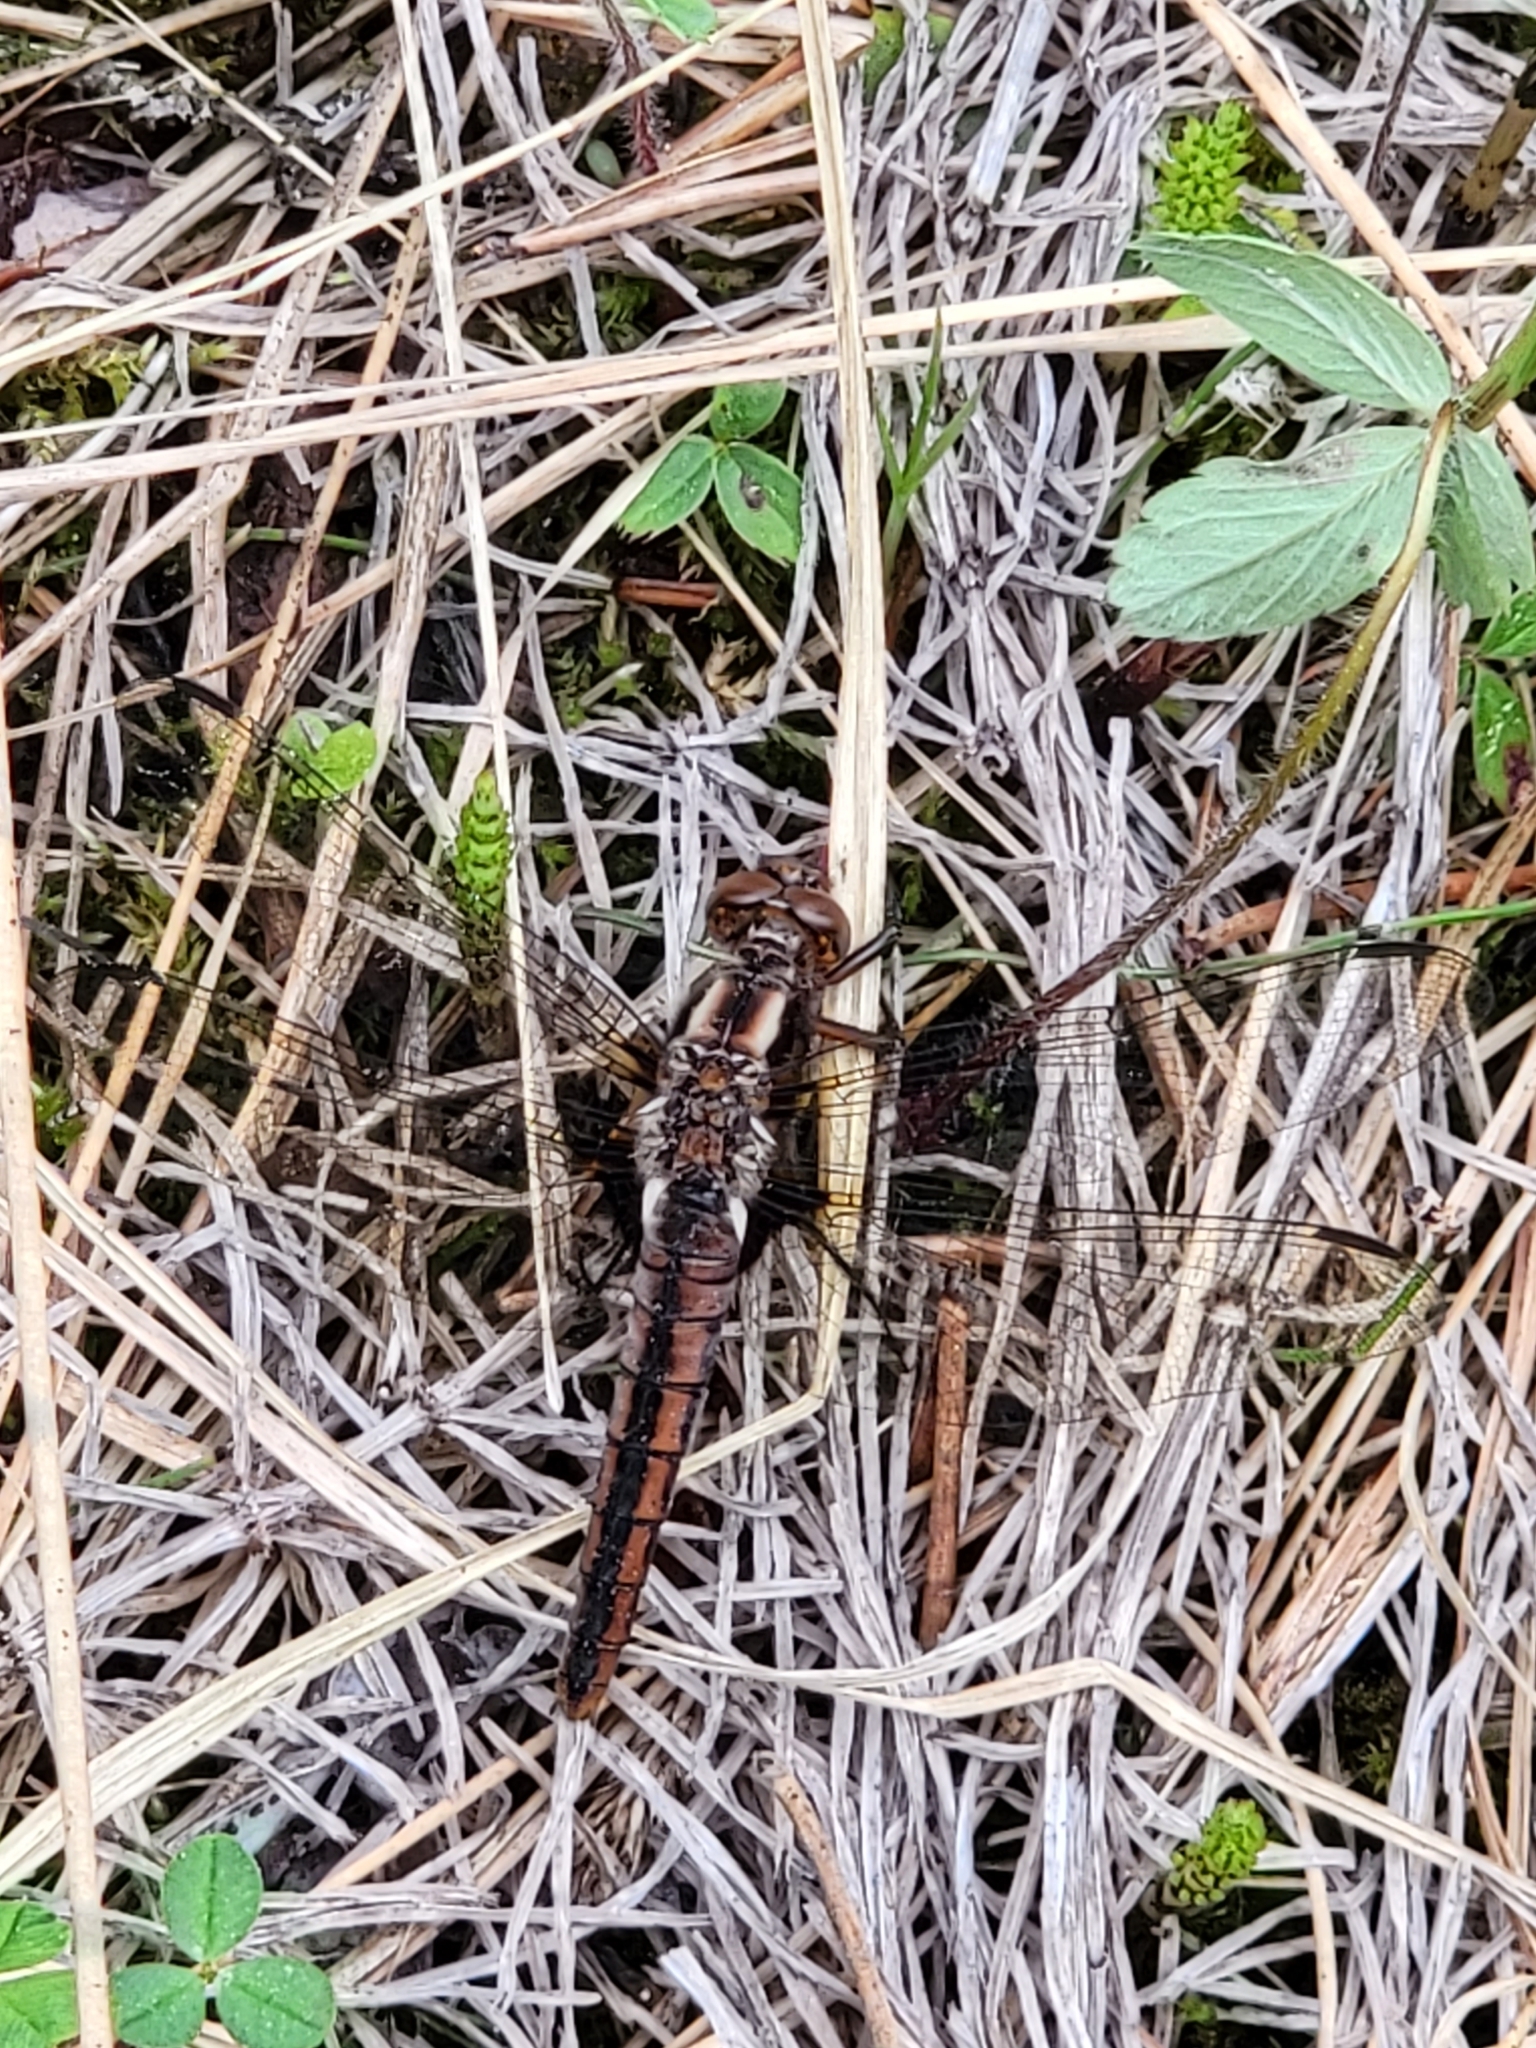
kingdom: Animalia
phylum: Arthropoda
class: Insecta
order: Odonata
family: Libellulidae
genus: Ladona
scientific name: Ladona julia
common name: Chalk-fronted corporal
